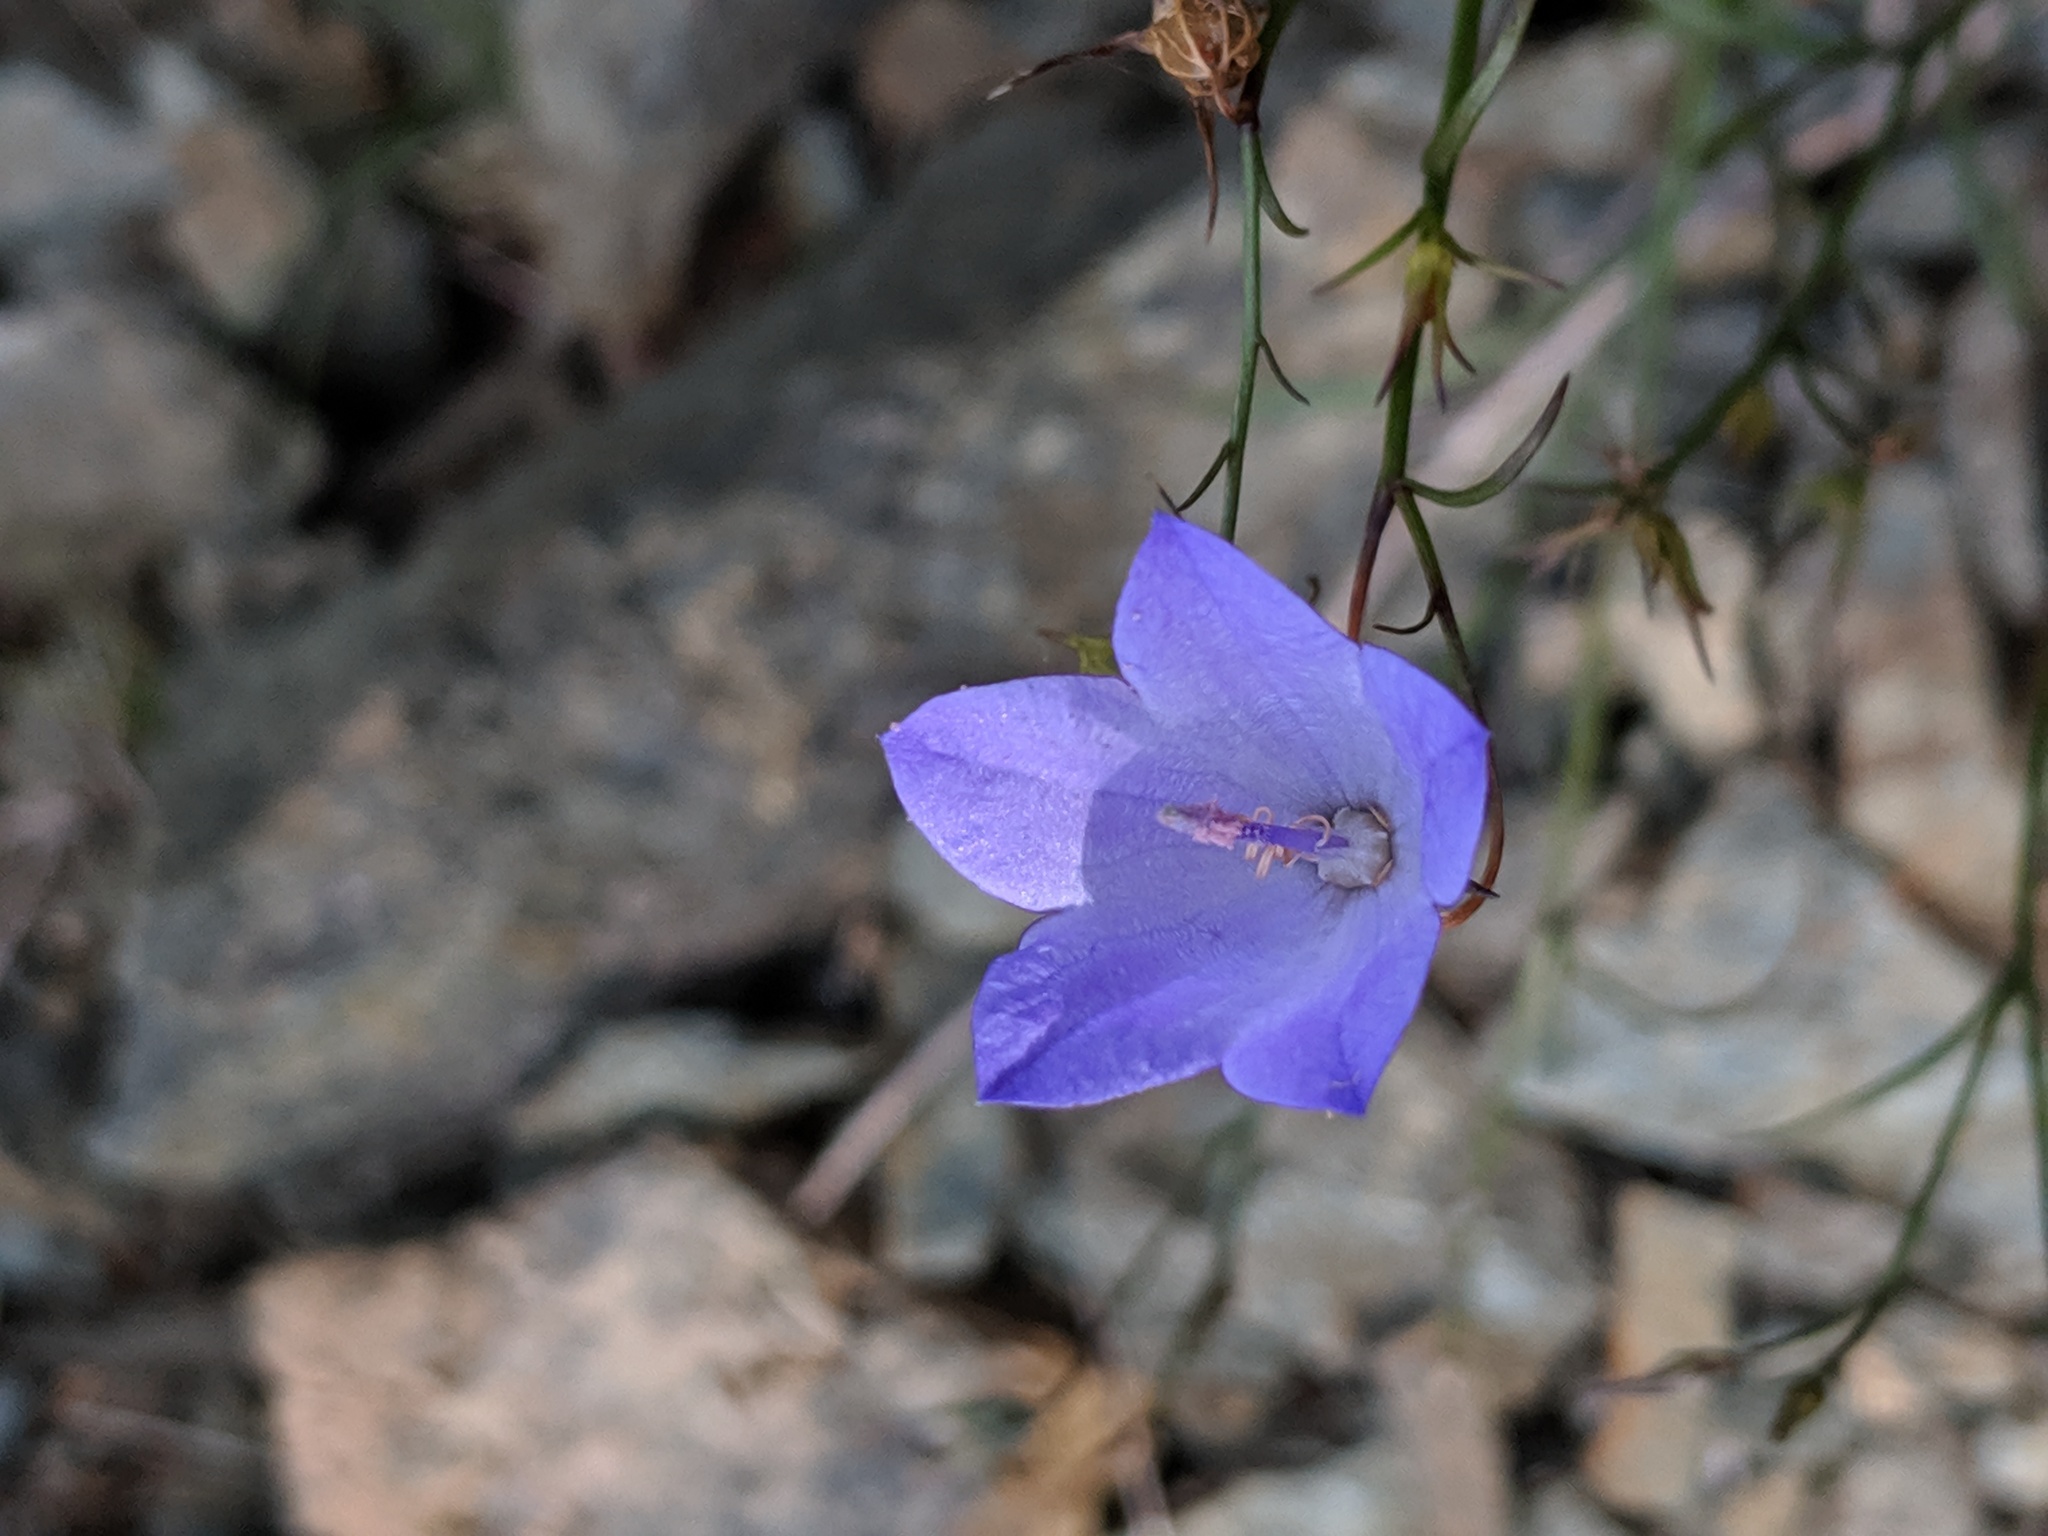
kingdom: Plantae
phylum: Tracheophyta
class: Magnoliopsida
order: Asterales
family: Campanulaceae
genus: Campanula
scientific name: Campanula intercedens
